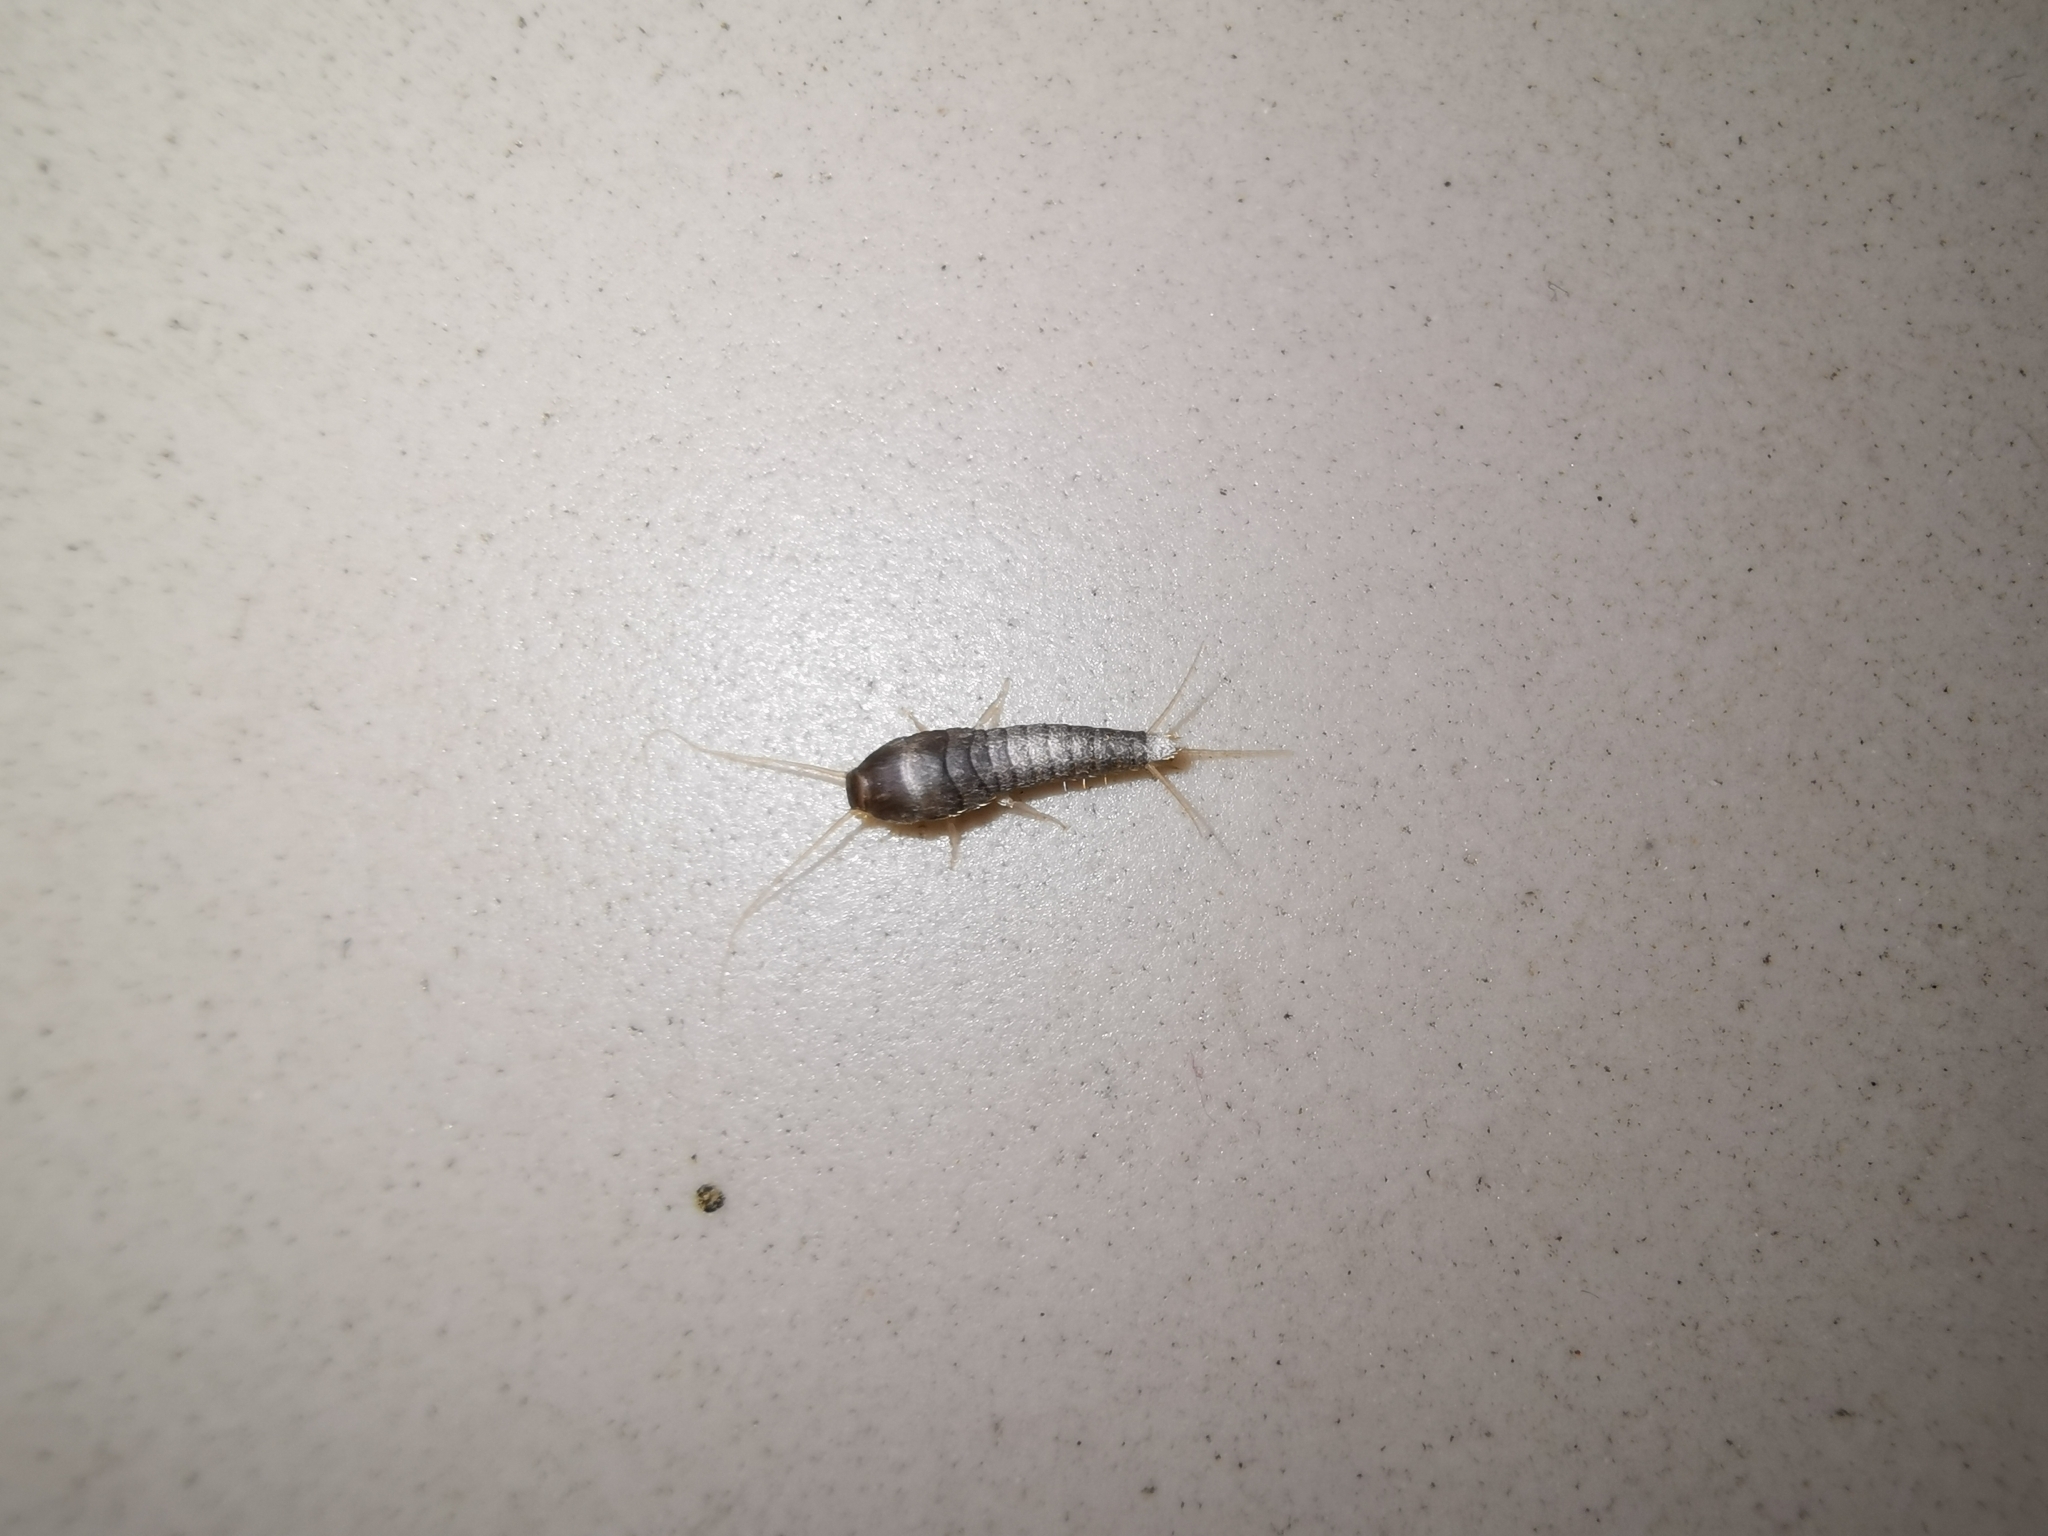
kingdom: Animalia
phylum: Arthropoda
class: Insecta
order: Zygentoma
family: Lepismatidae
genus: Lepisma
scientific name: Lepisma saccharinum
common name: Silverfish
